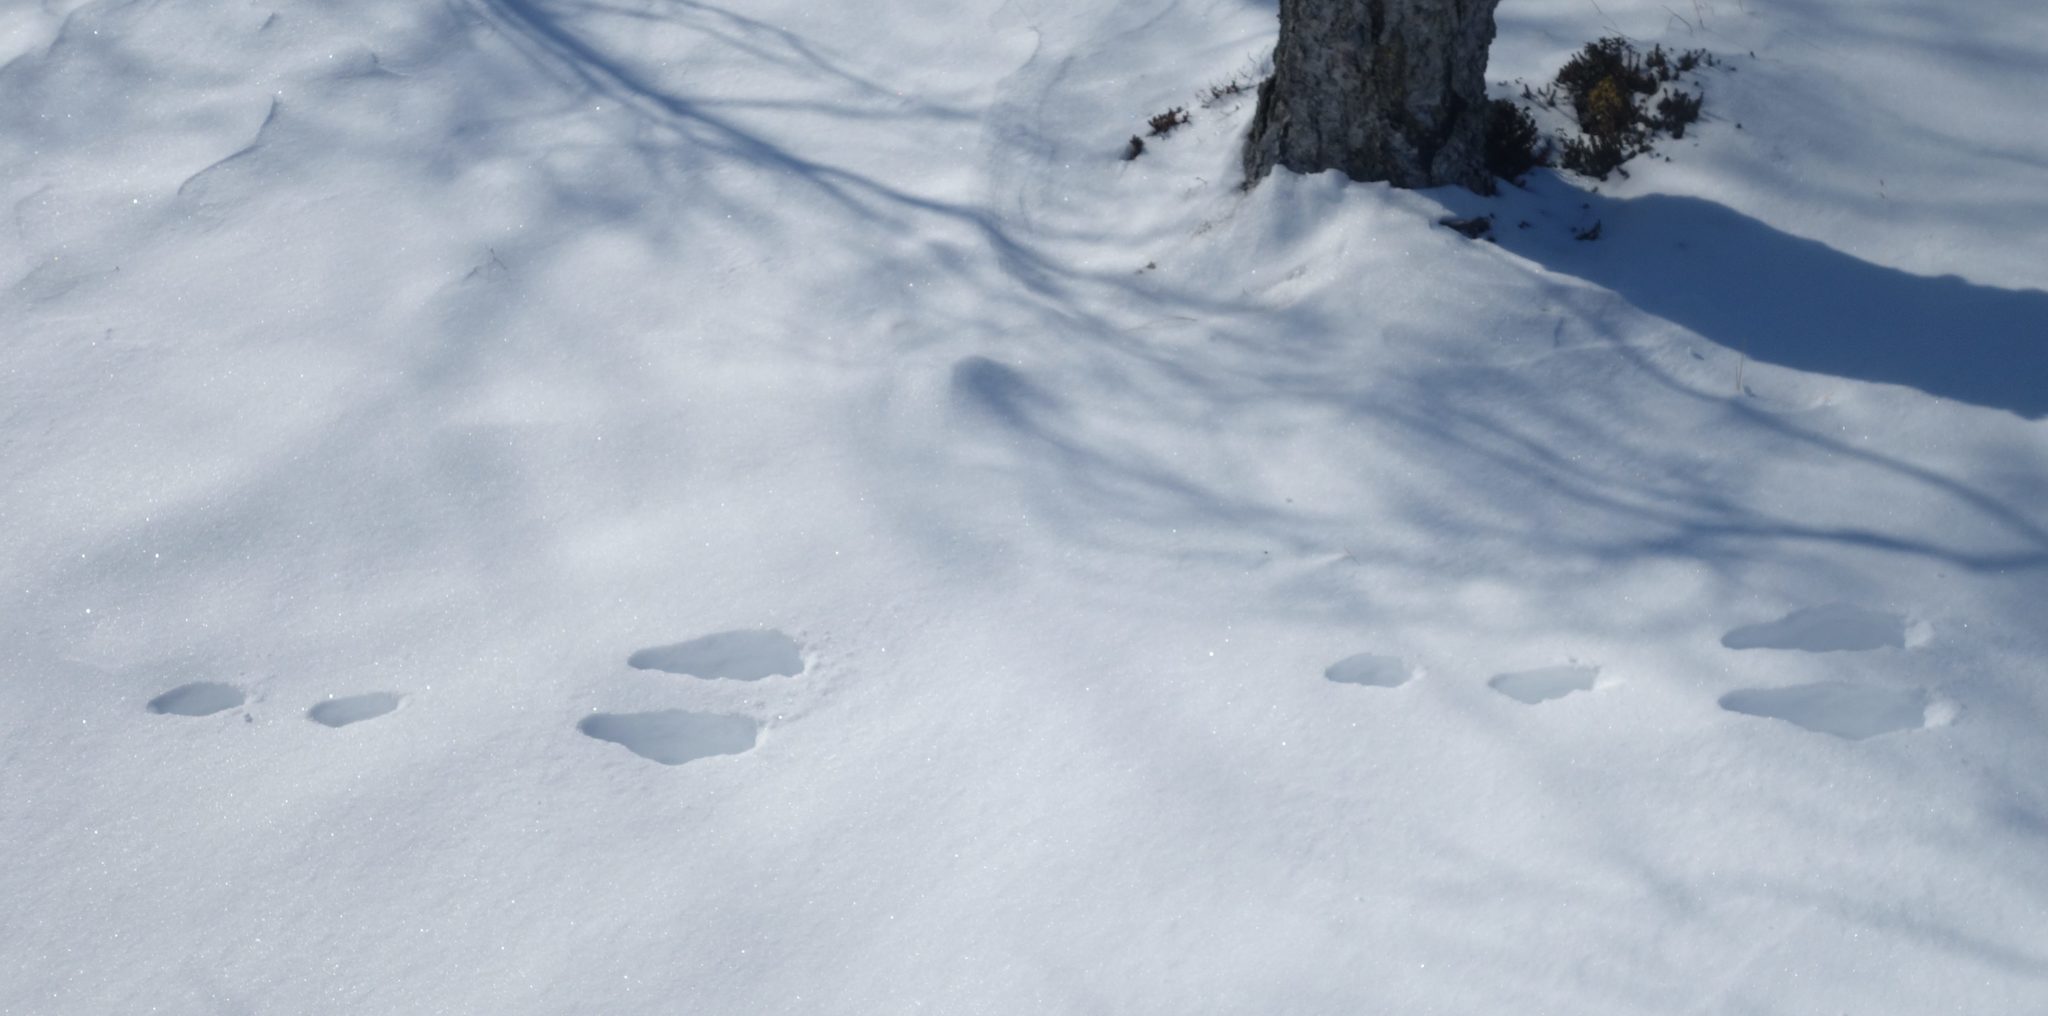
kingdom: Animalia
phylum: Chordata
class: Mammalia
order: Lagomorpha
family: Leporidae
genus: Lepus
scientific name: Lepus timidus
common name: Mountain hare
